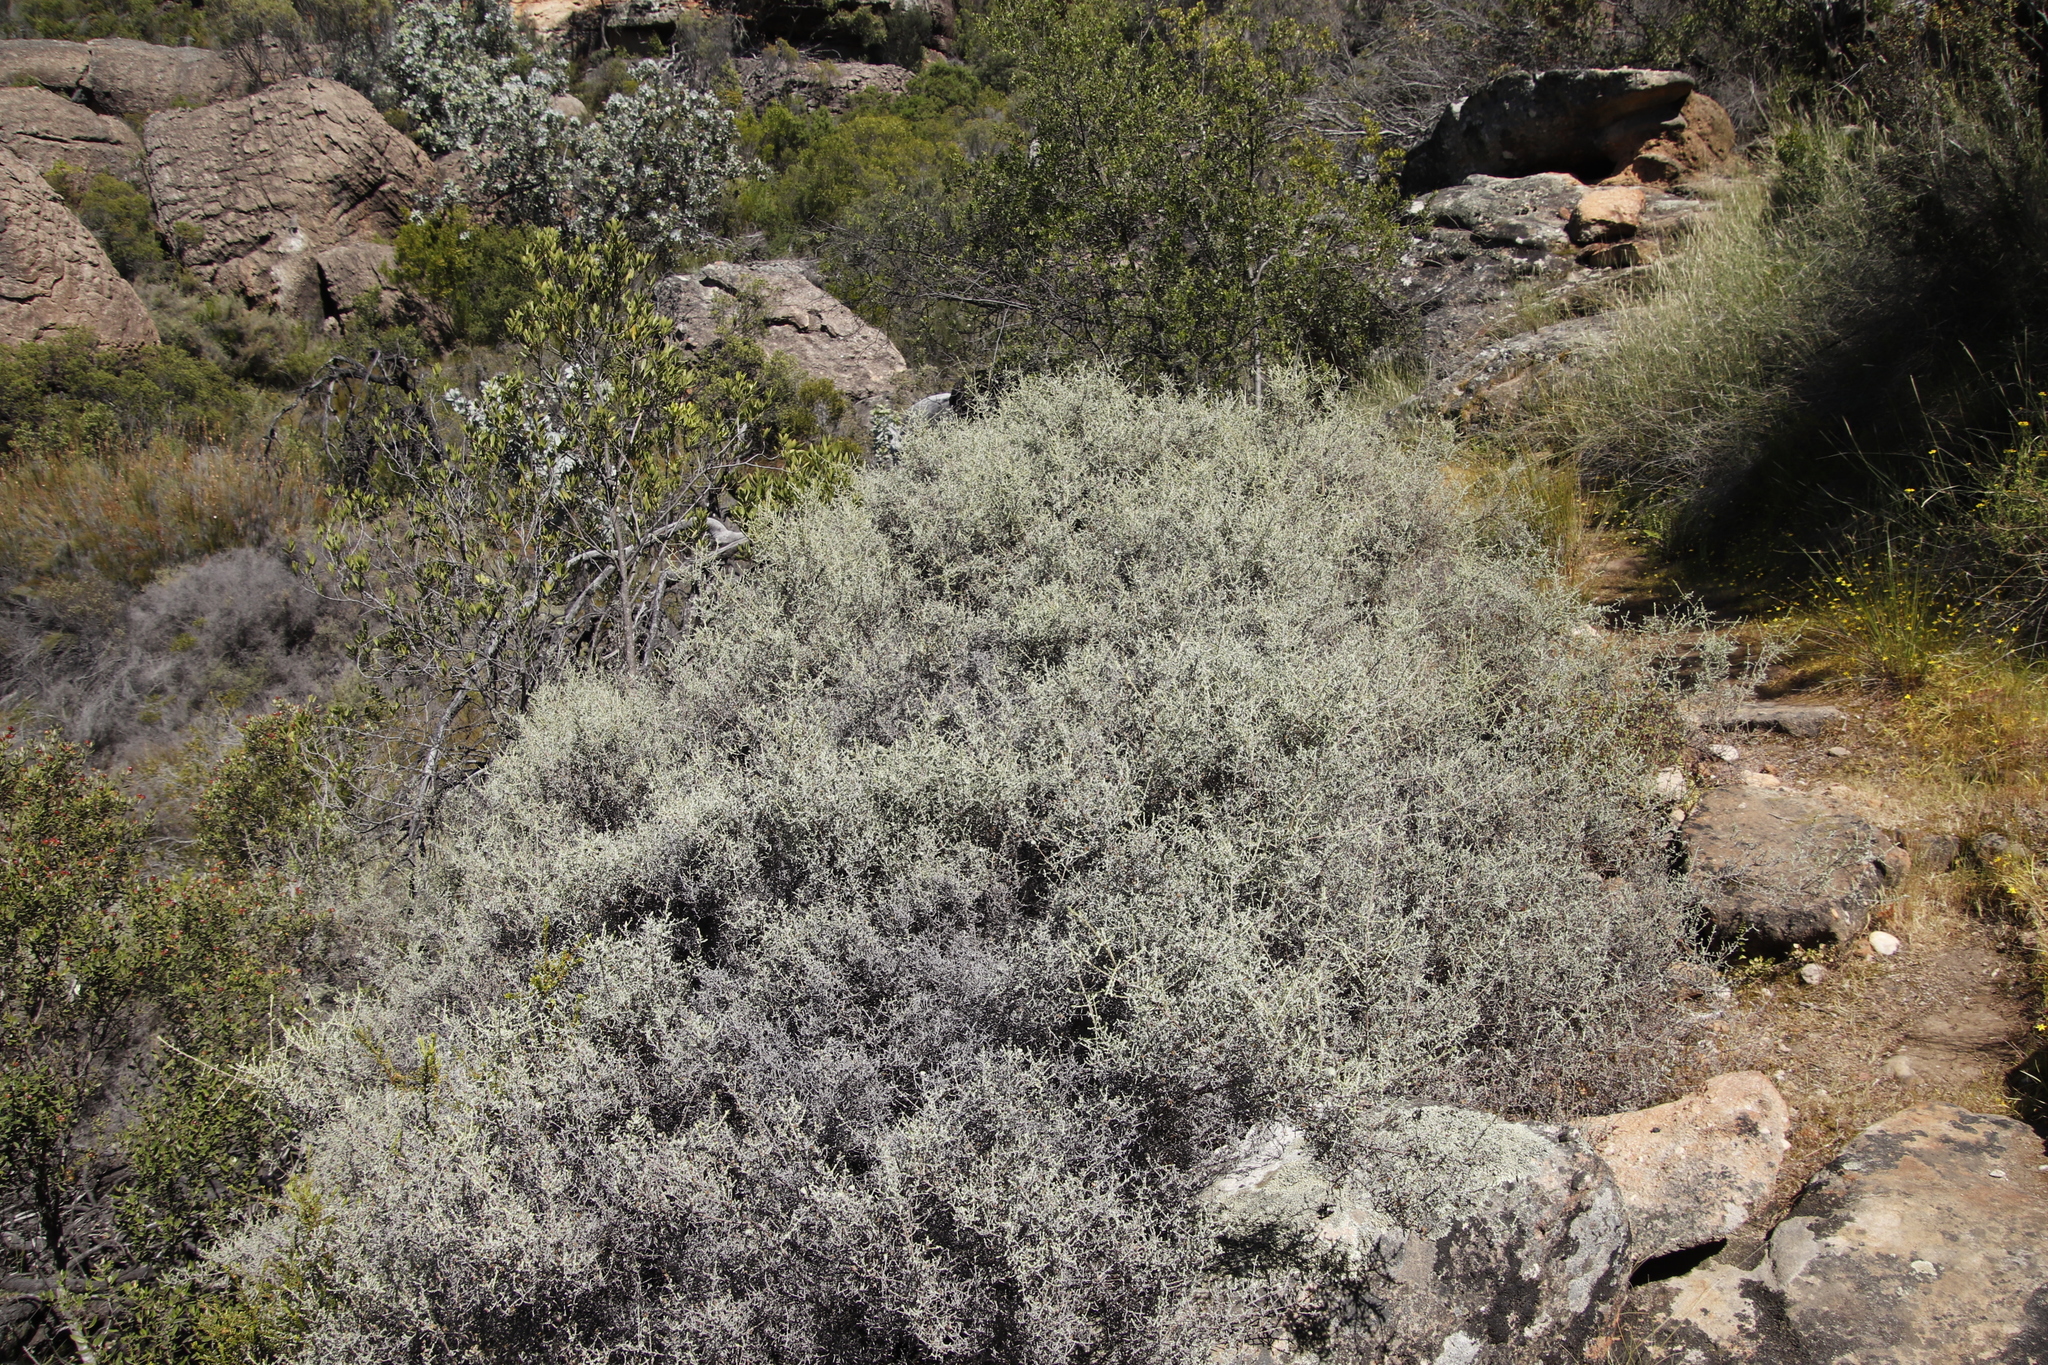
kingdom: Plantae
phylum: Tracheophyta
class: Magnoliopsida
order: Asterales
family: Asteraceae
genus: Seriphium
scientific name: Seriphium plumosum
